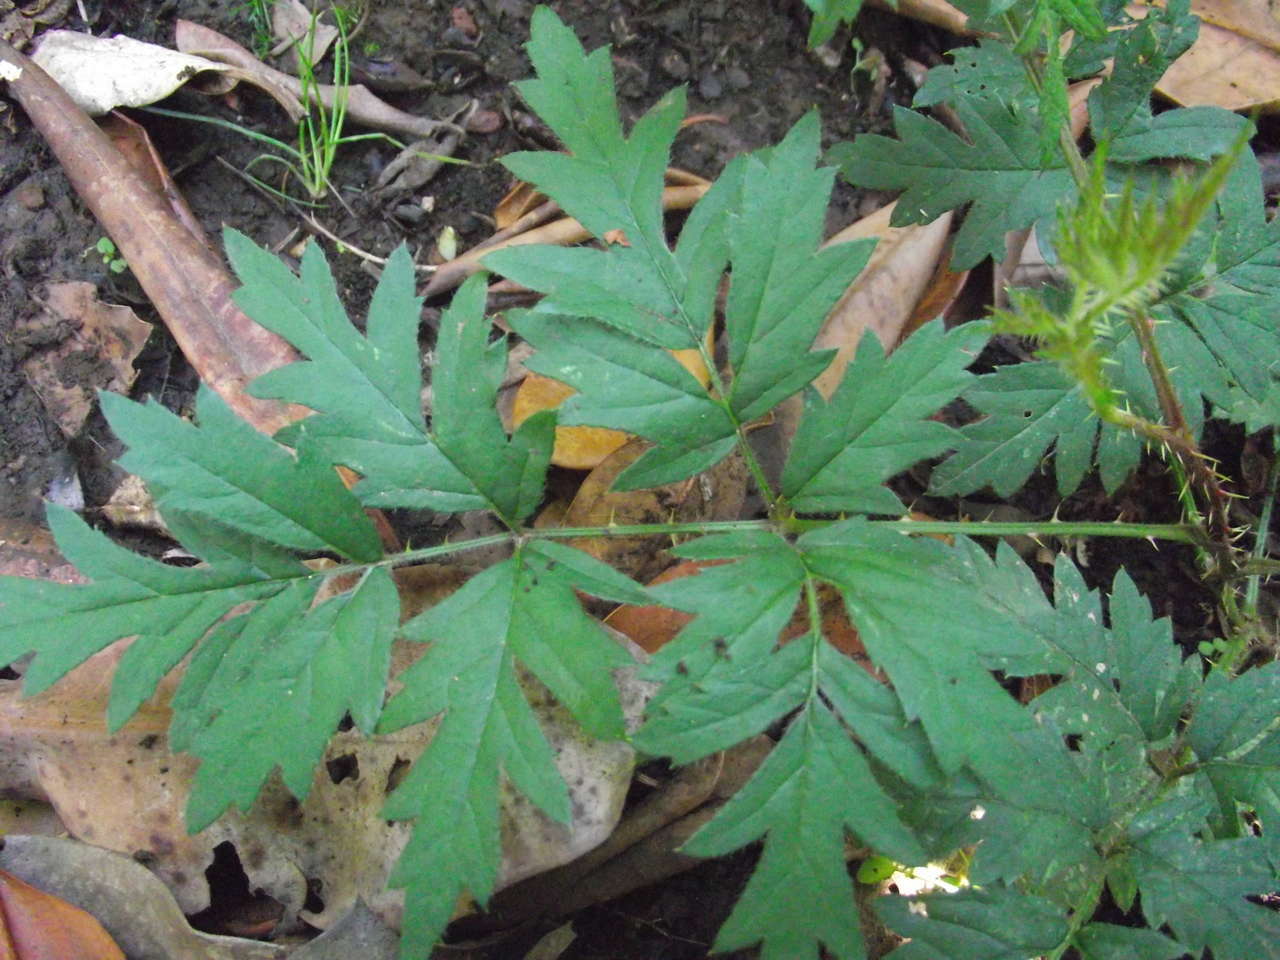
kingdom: Plantae
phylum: Tracheophyta
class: Magnoliopsida
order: Rosales
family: Rosaceae
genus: Rubus
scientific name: Rubus laciniatus
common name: Evergreen blackberry
